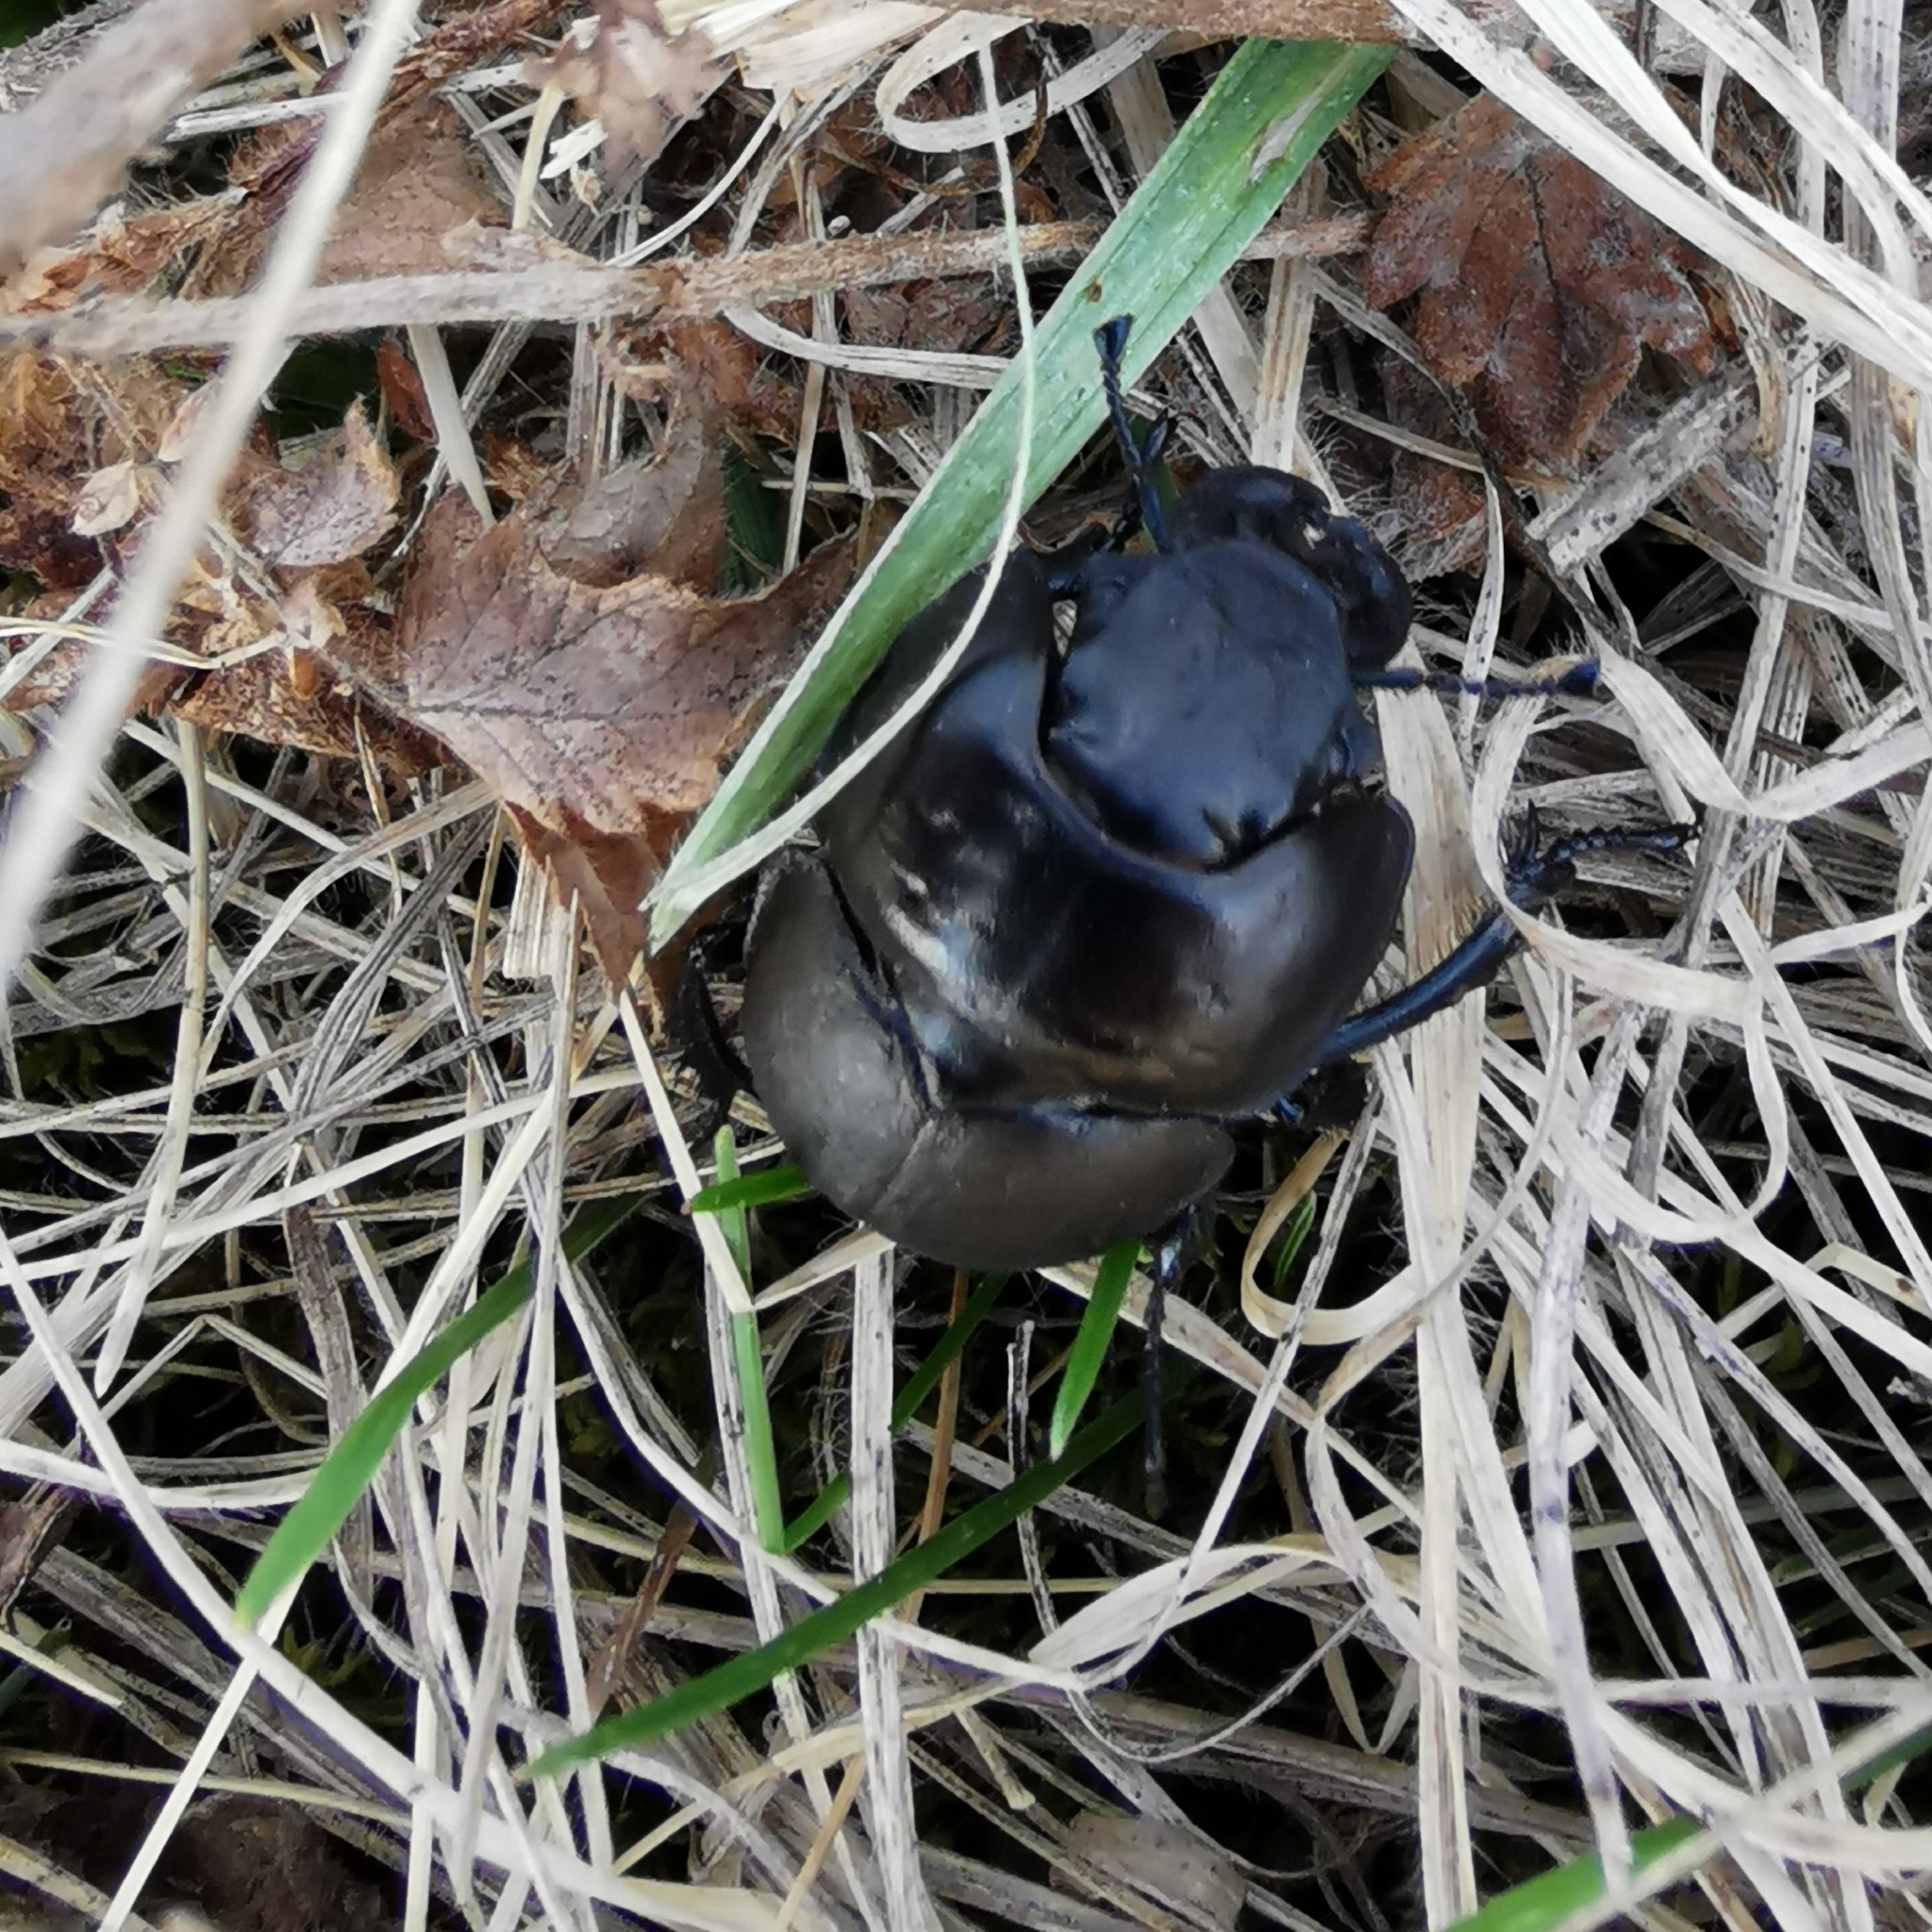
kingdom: Animalia
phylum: Arthropoda
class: Insecta
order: Coleoptera
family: Geotrupidae
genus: Lethrus
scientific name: Lethrus apterus
